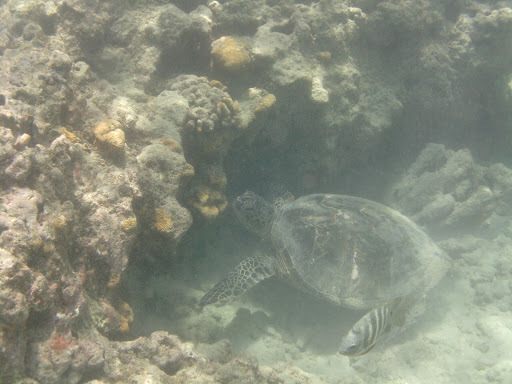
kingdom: Animalia
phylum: Chordata
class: Testudines
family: Cheloniidae
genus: Chelonia
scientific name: Chelonia mydas
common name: Green turtle
